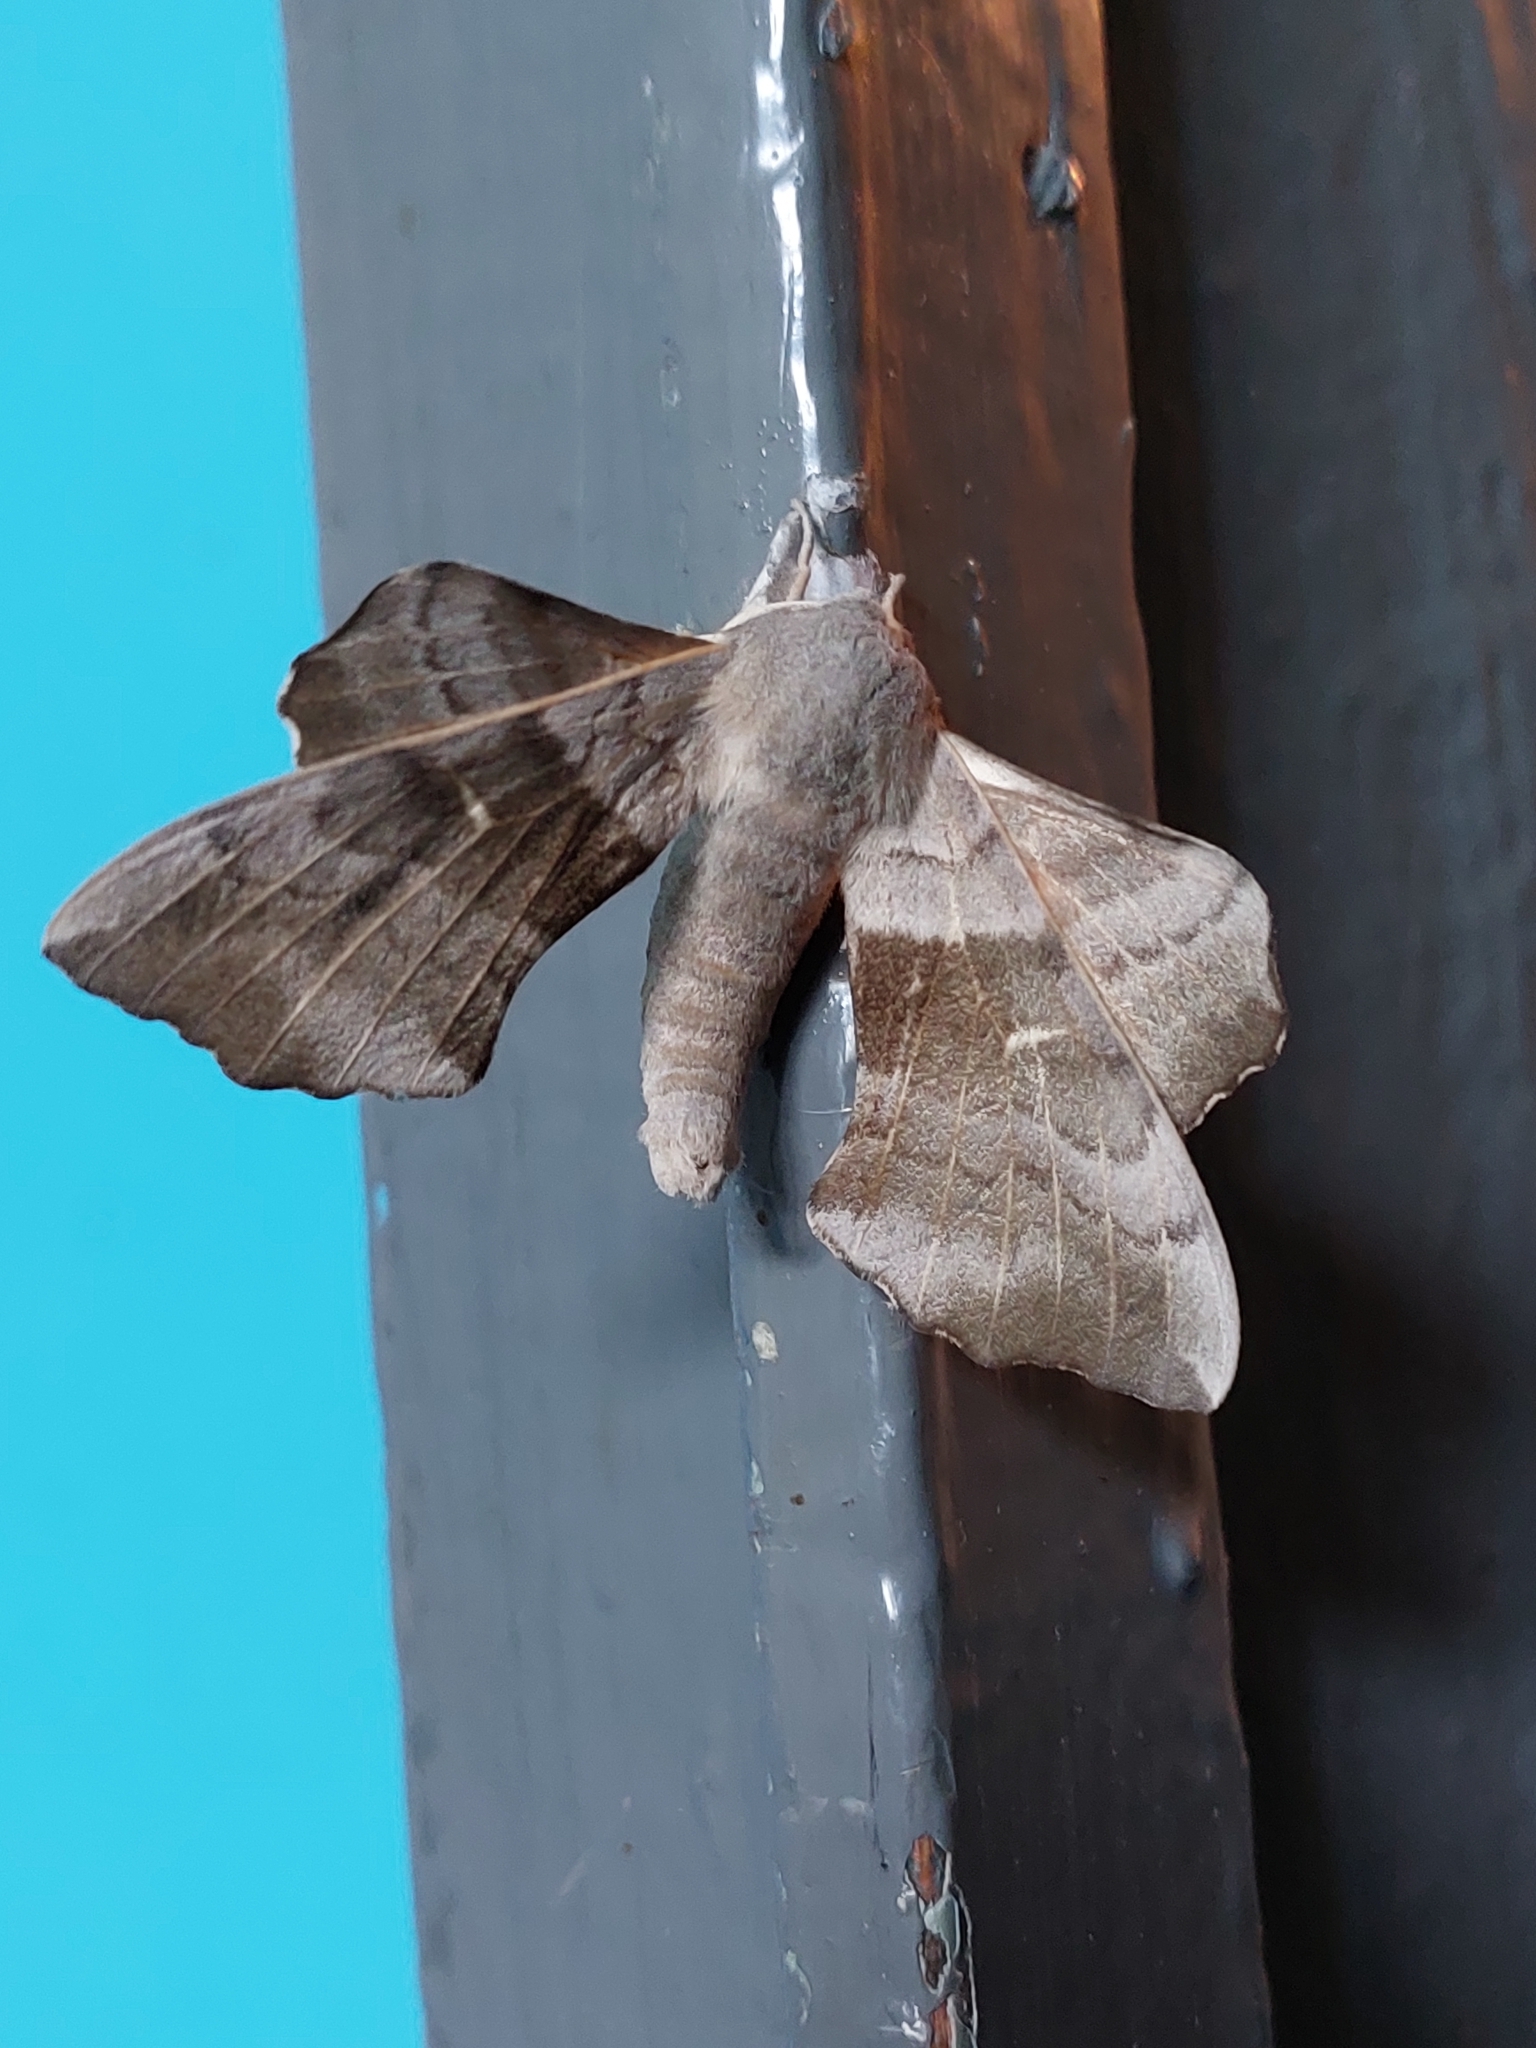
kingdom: Animalia
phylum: Arthropoda
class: Insecta
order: Lepidoptera
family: Sphingidae
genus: Laothoe
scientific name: Laothoe populi
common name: Poplar hawk-moth
